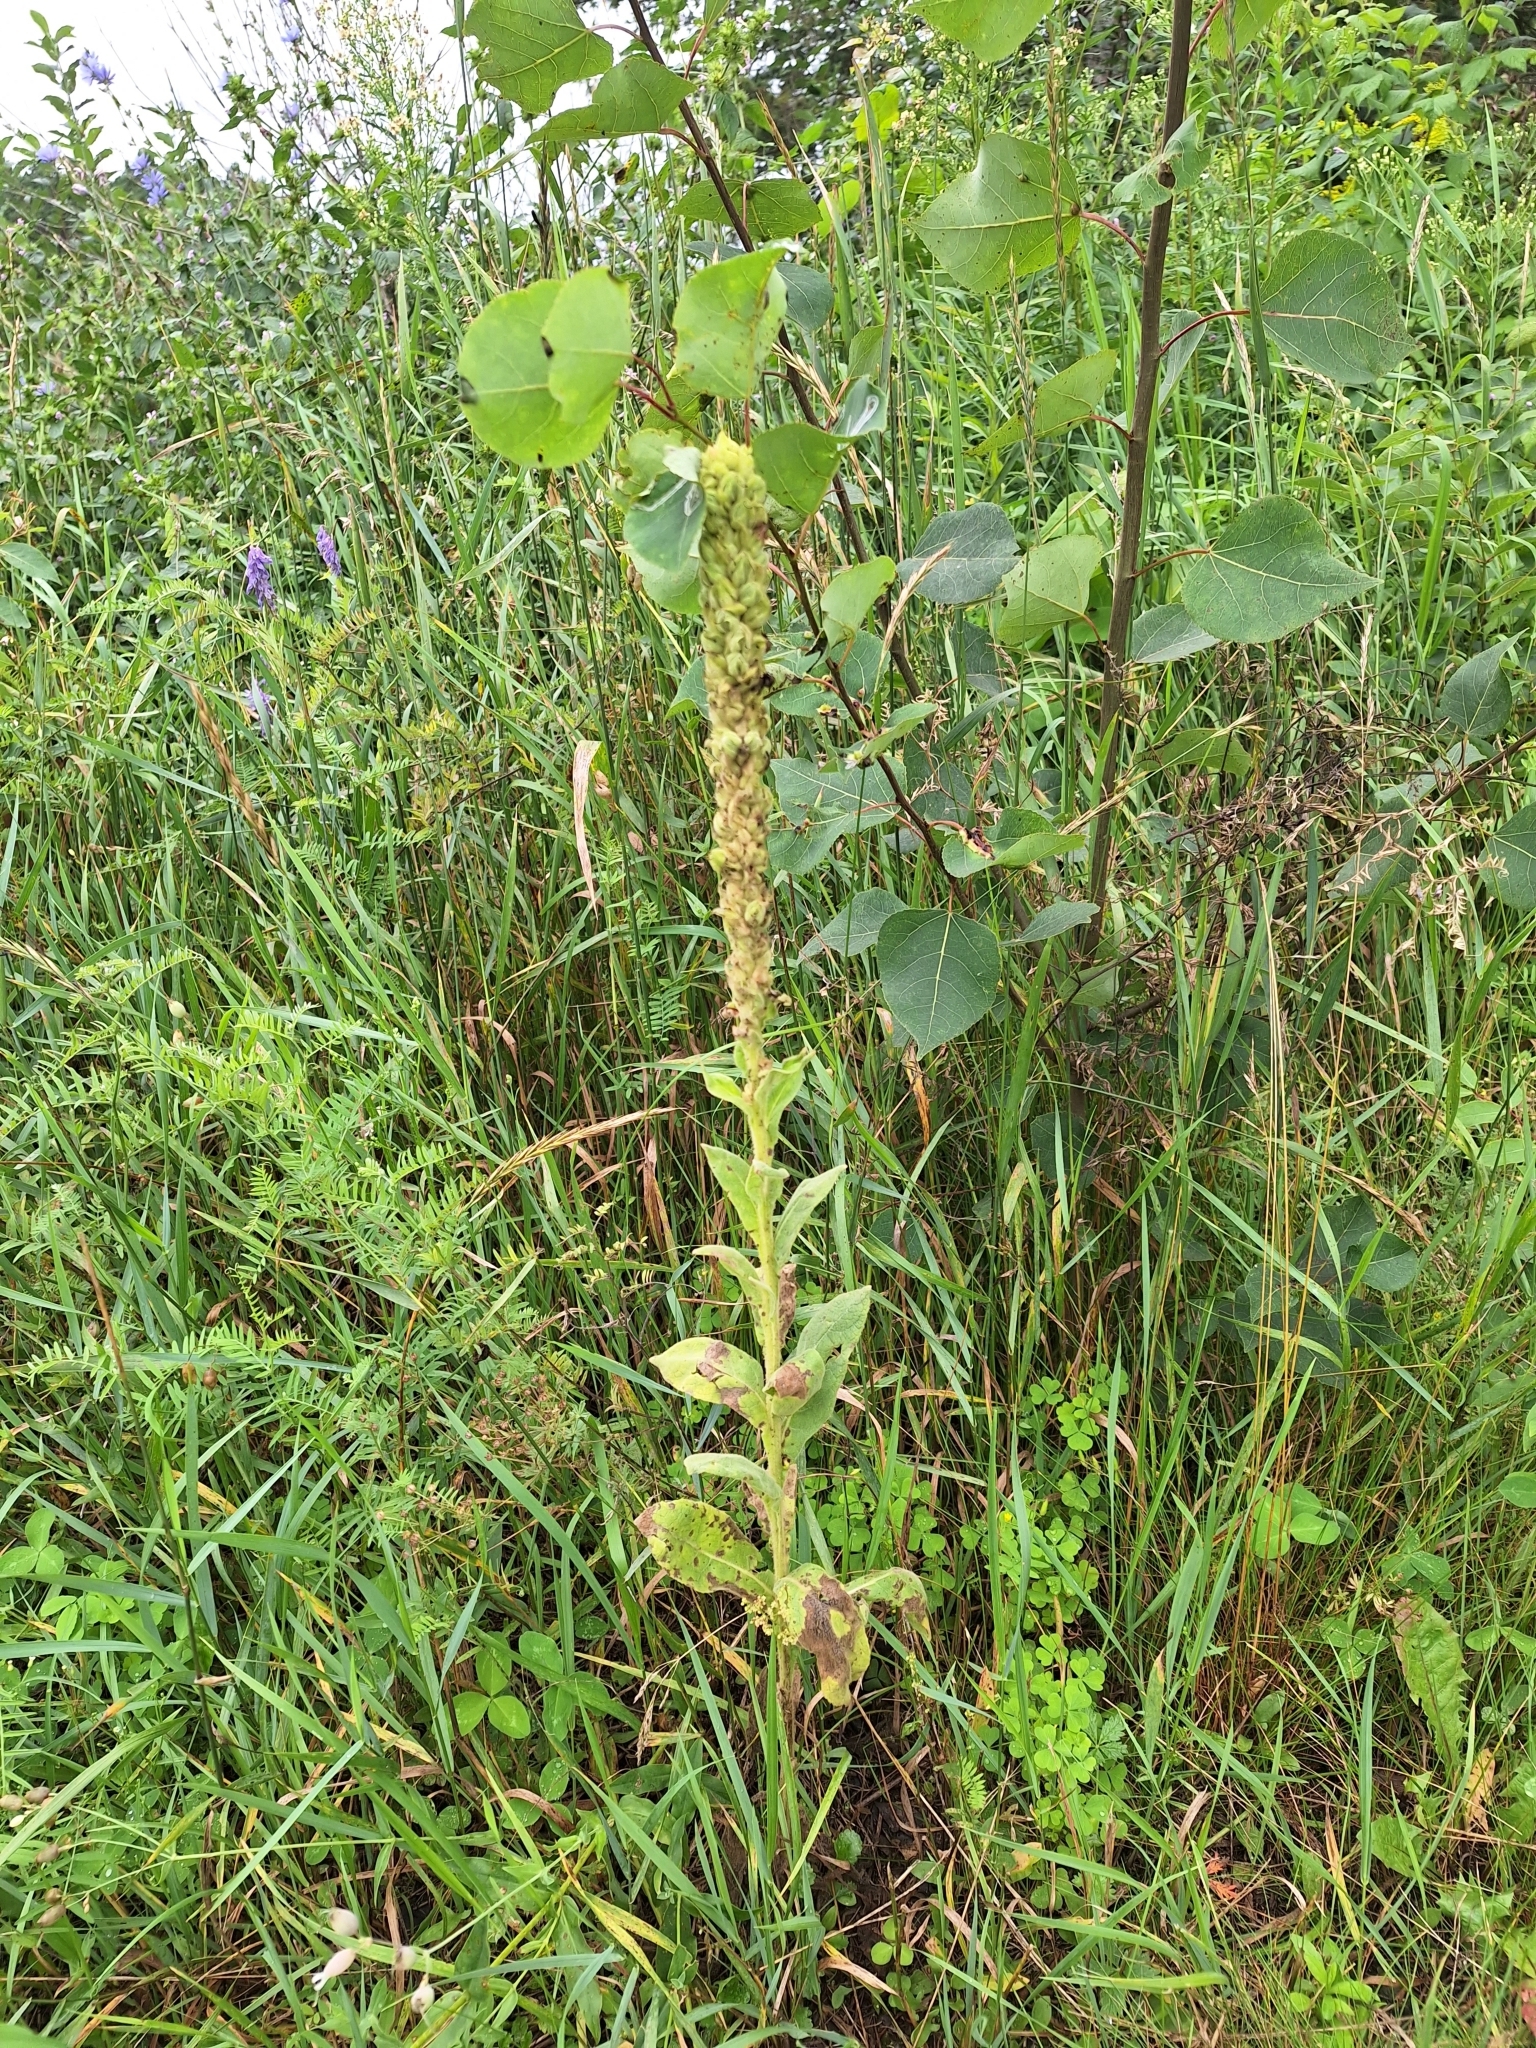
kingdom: Plantae
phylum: Tracheophyta
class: Magnoliopsida
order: Lamiales
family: Scrophulariaceae
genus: Verbascum
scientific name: Verbascum thapsus
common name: Common mullein
